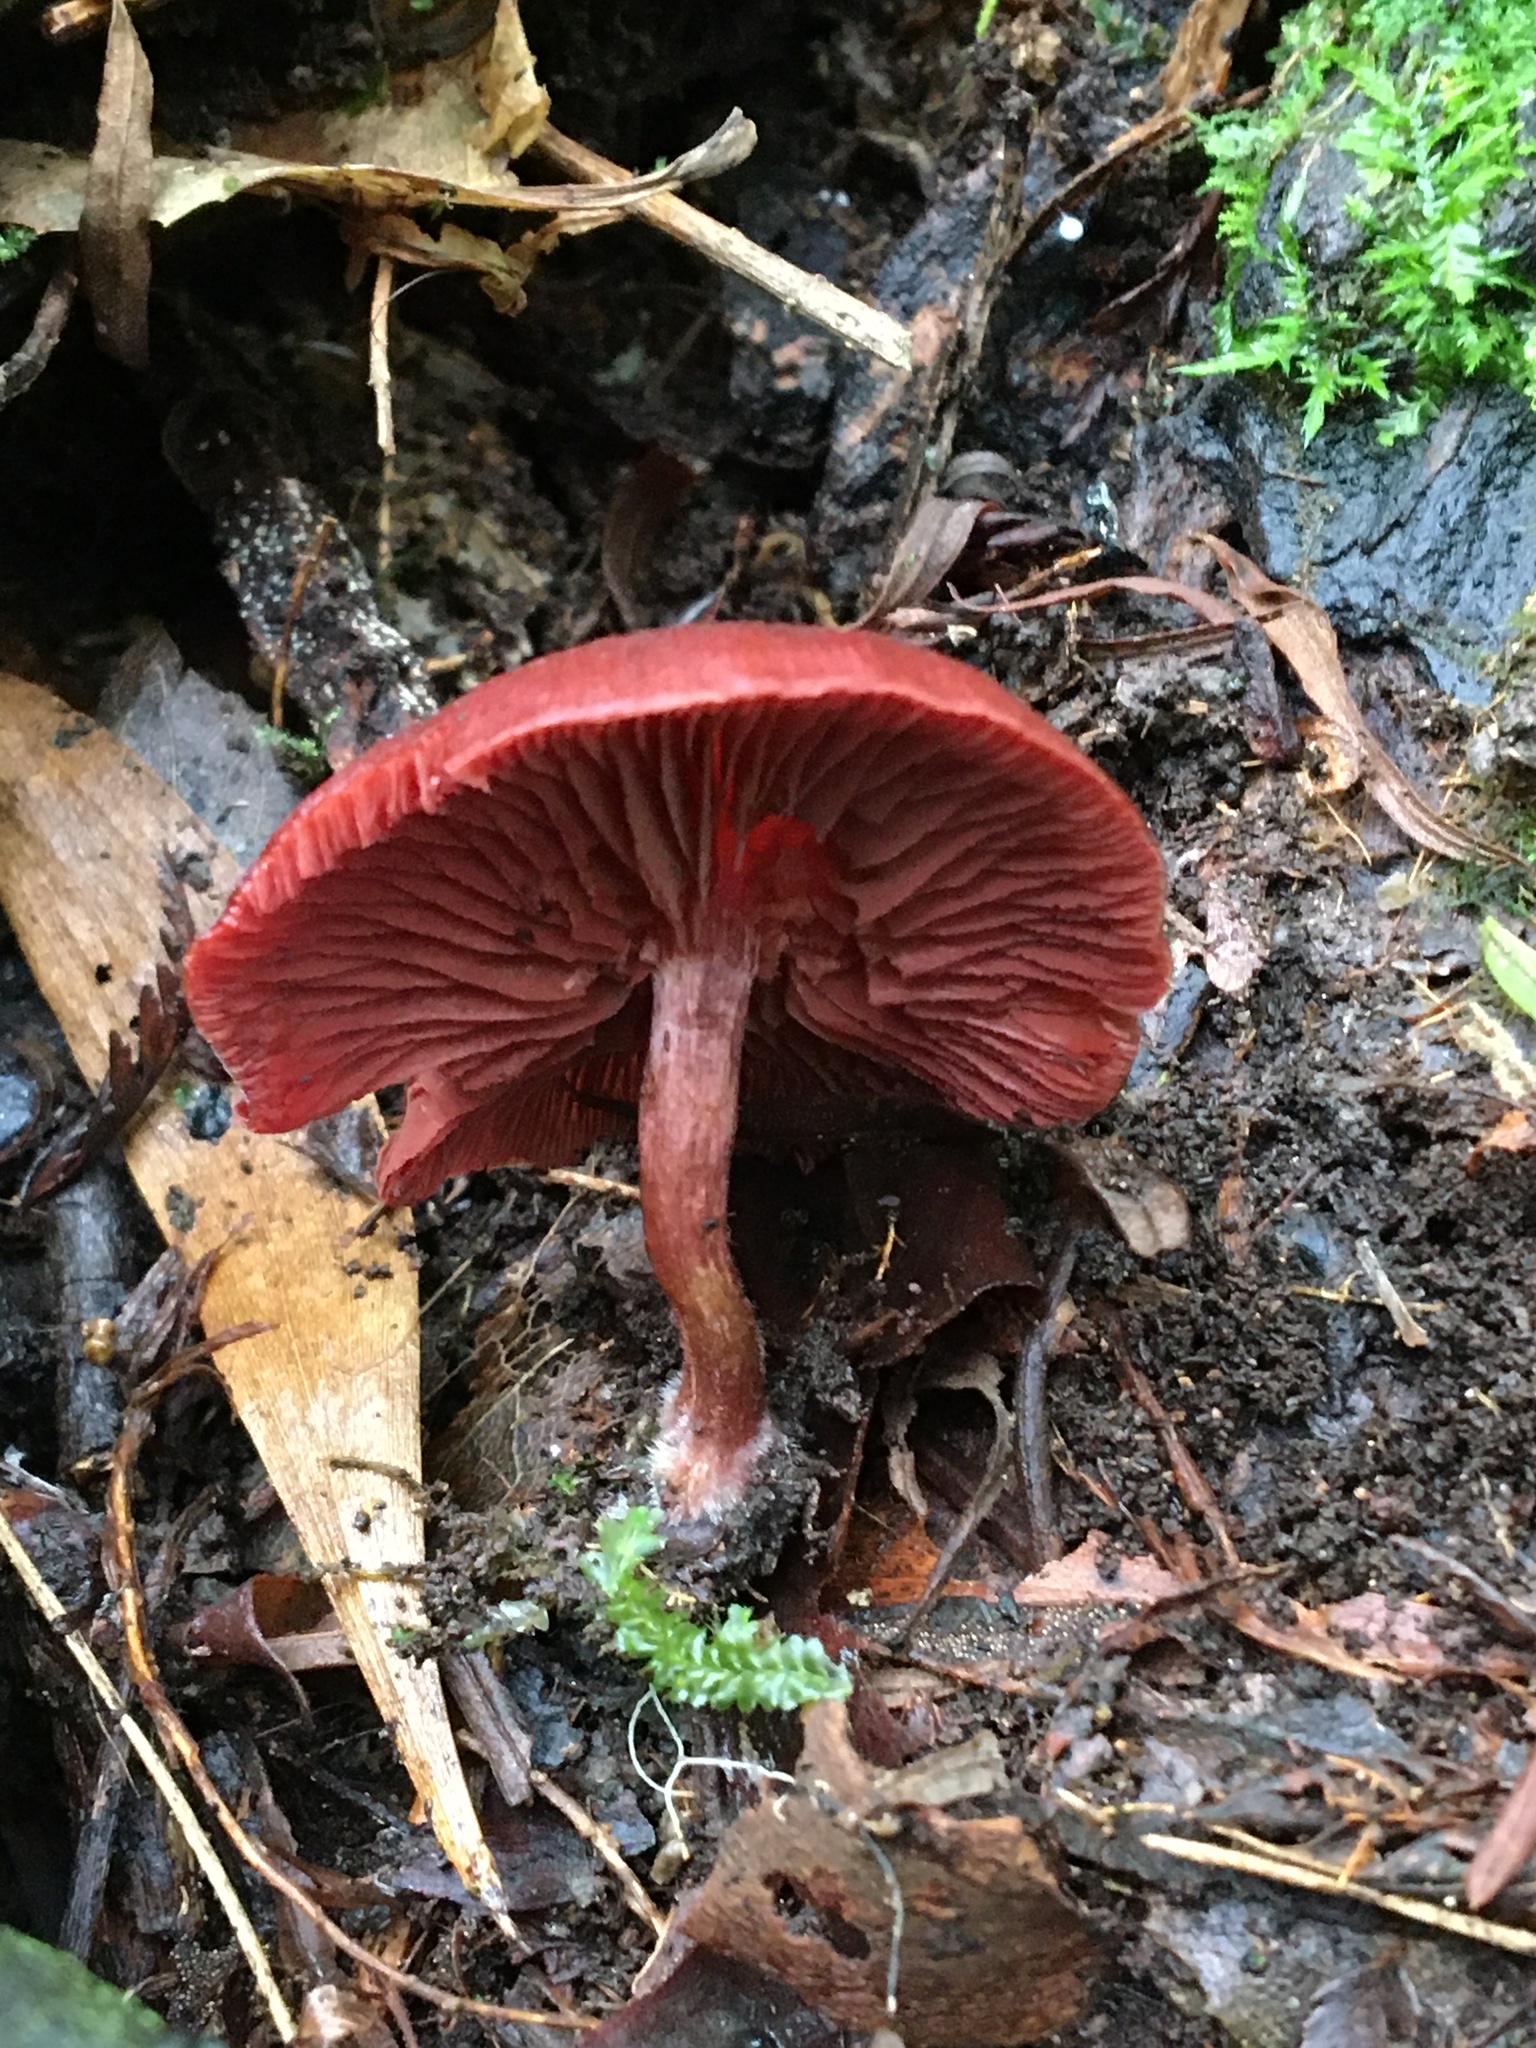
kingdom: Fungi
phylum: Basidiomycota
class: Agaricomycetes
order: Agaricales
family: Tubariaceae
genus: Tubaria
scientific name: Tubaria rufofulva
